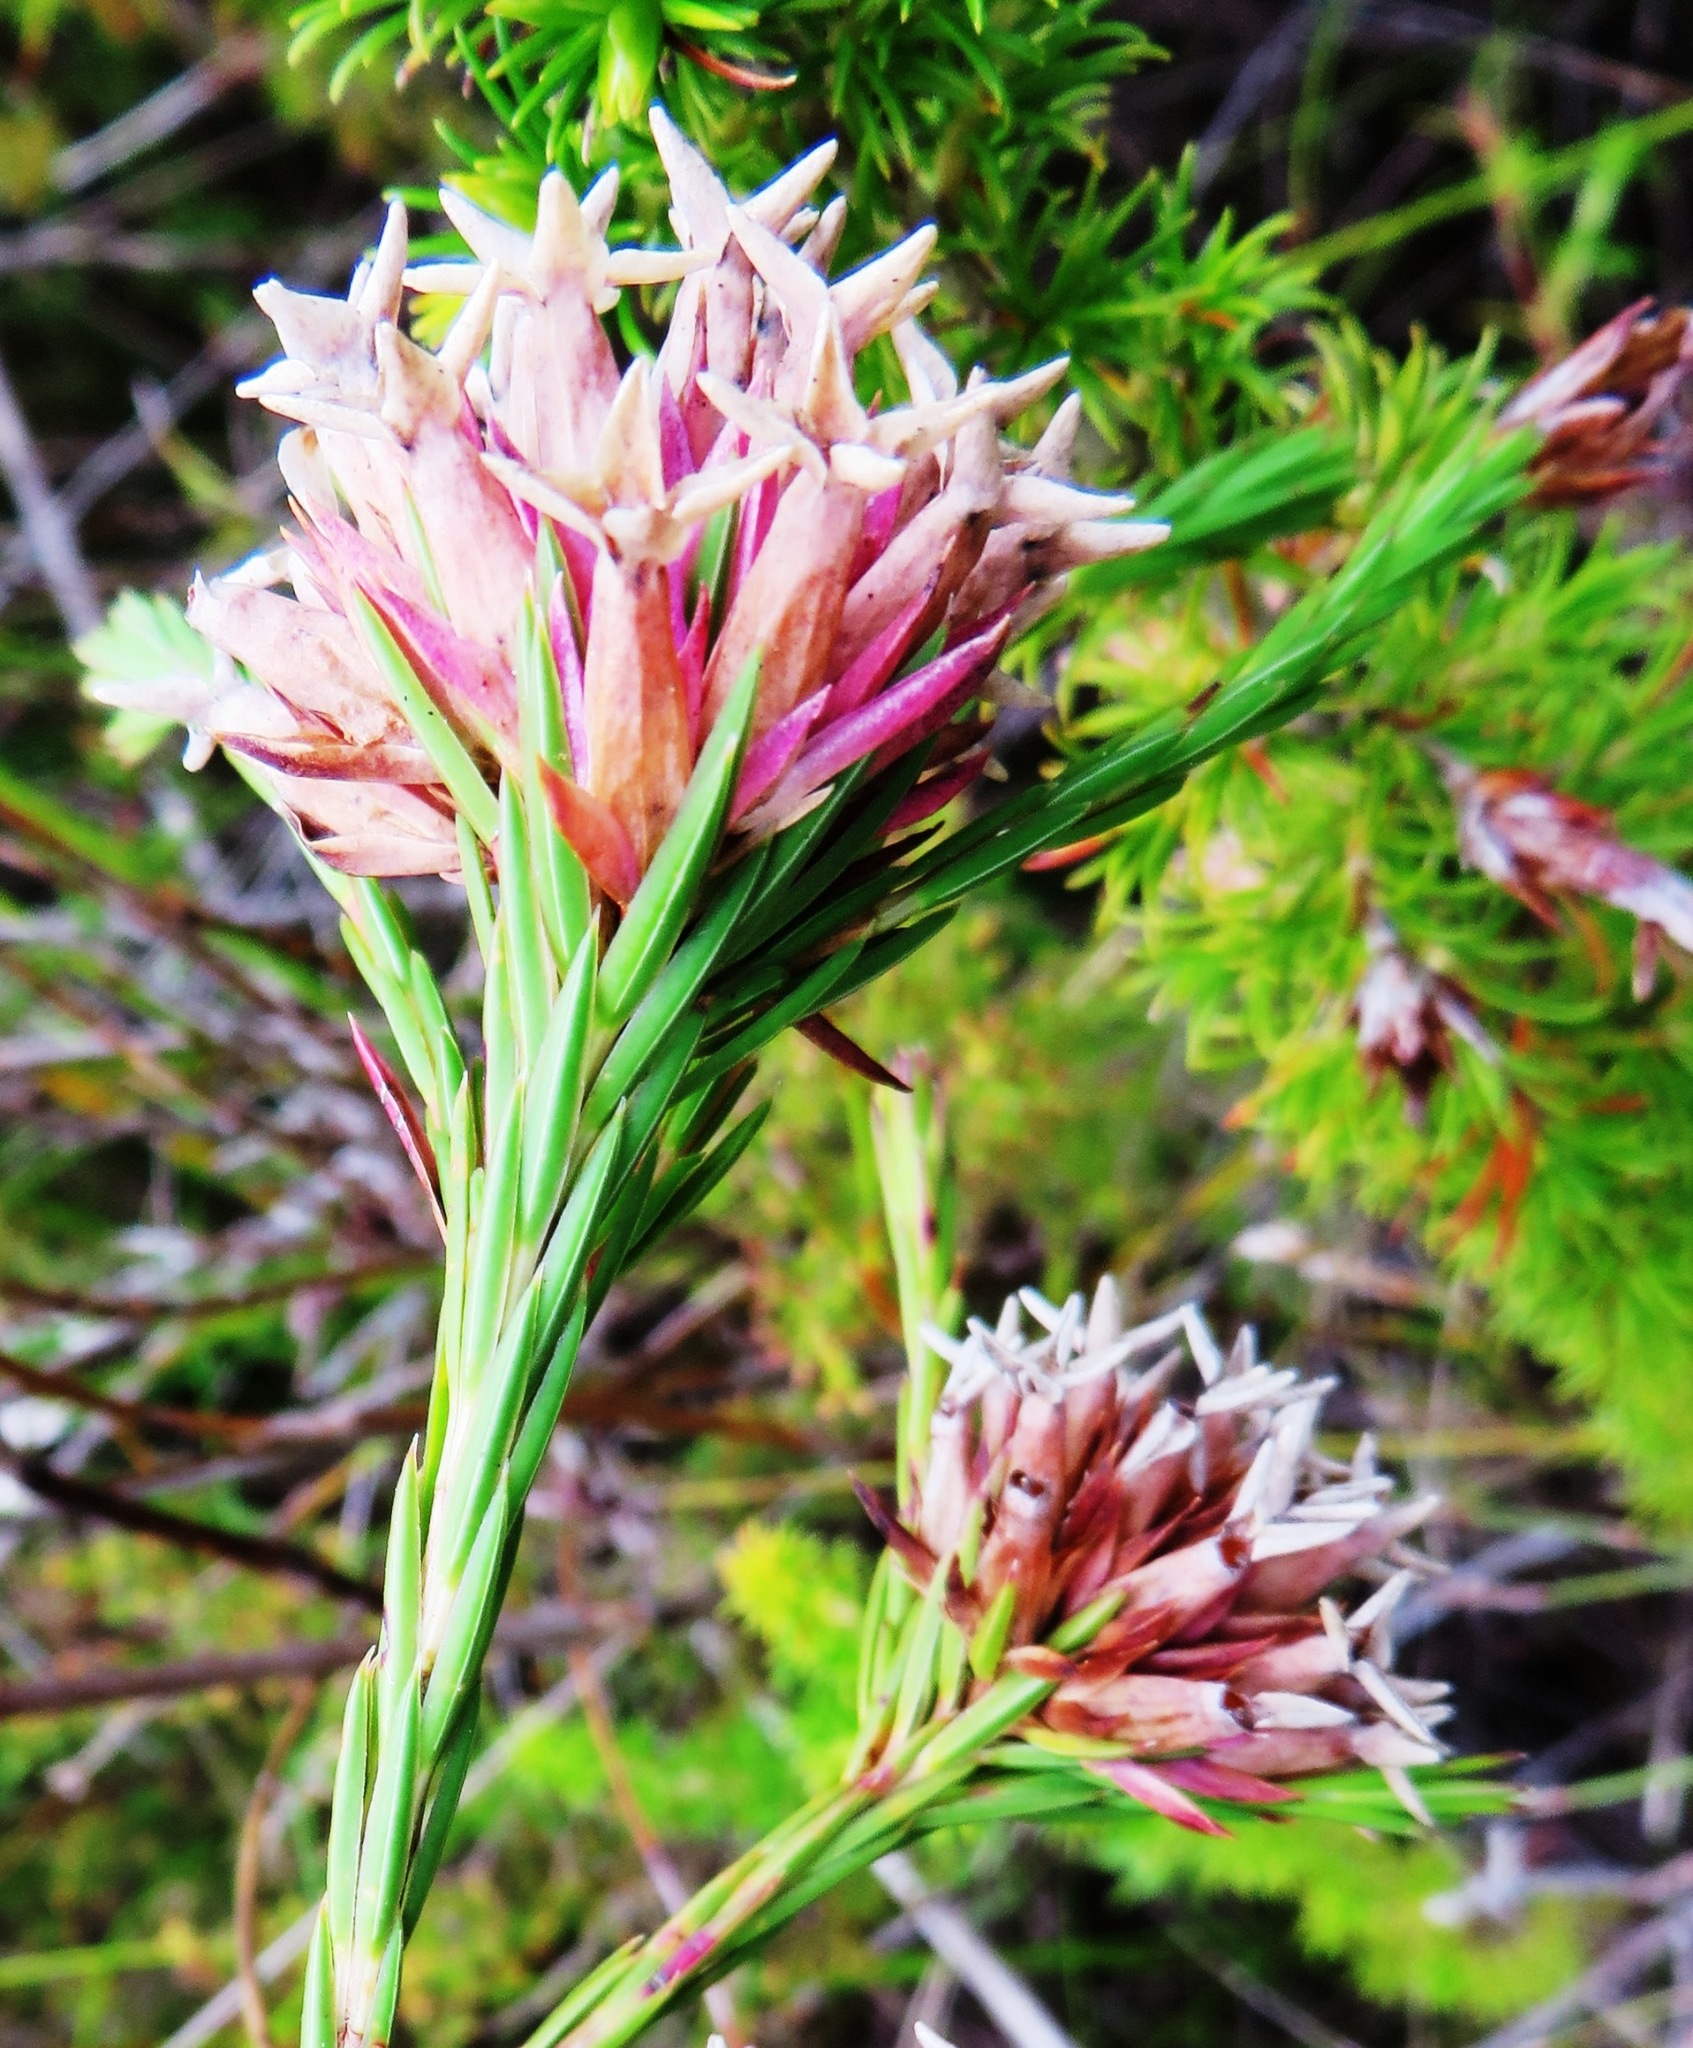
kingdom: Plantae
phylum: Tracheophyta
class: Magnoliopsida
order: Ericales
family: Ericaceae
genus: Erica
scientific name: Erica pycnantha
